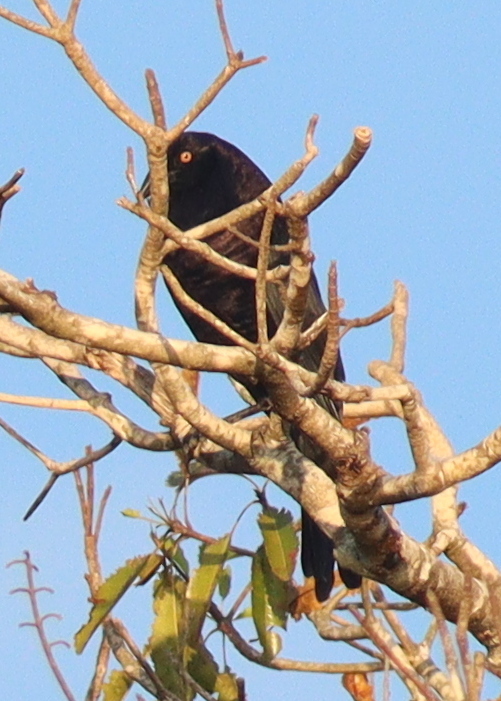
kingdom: Animalia
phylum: Chordata
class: Aves
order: Passeriformes
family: Icteridae
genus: Molothrus
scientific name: Molothrus oryzivorus
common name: Giant cowbird
